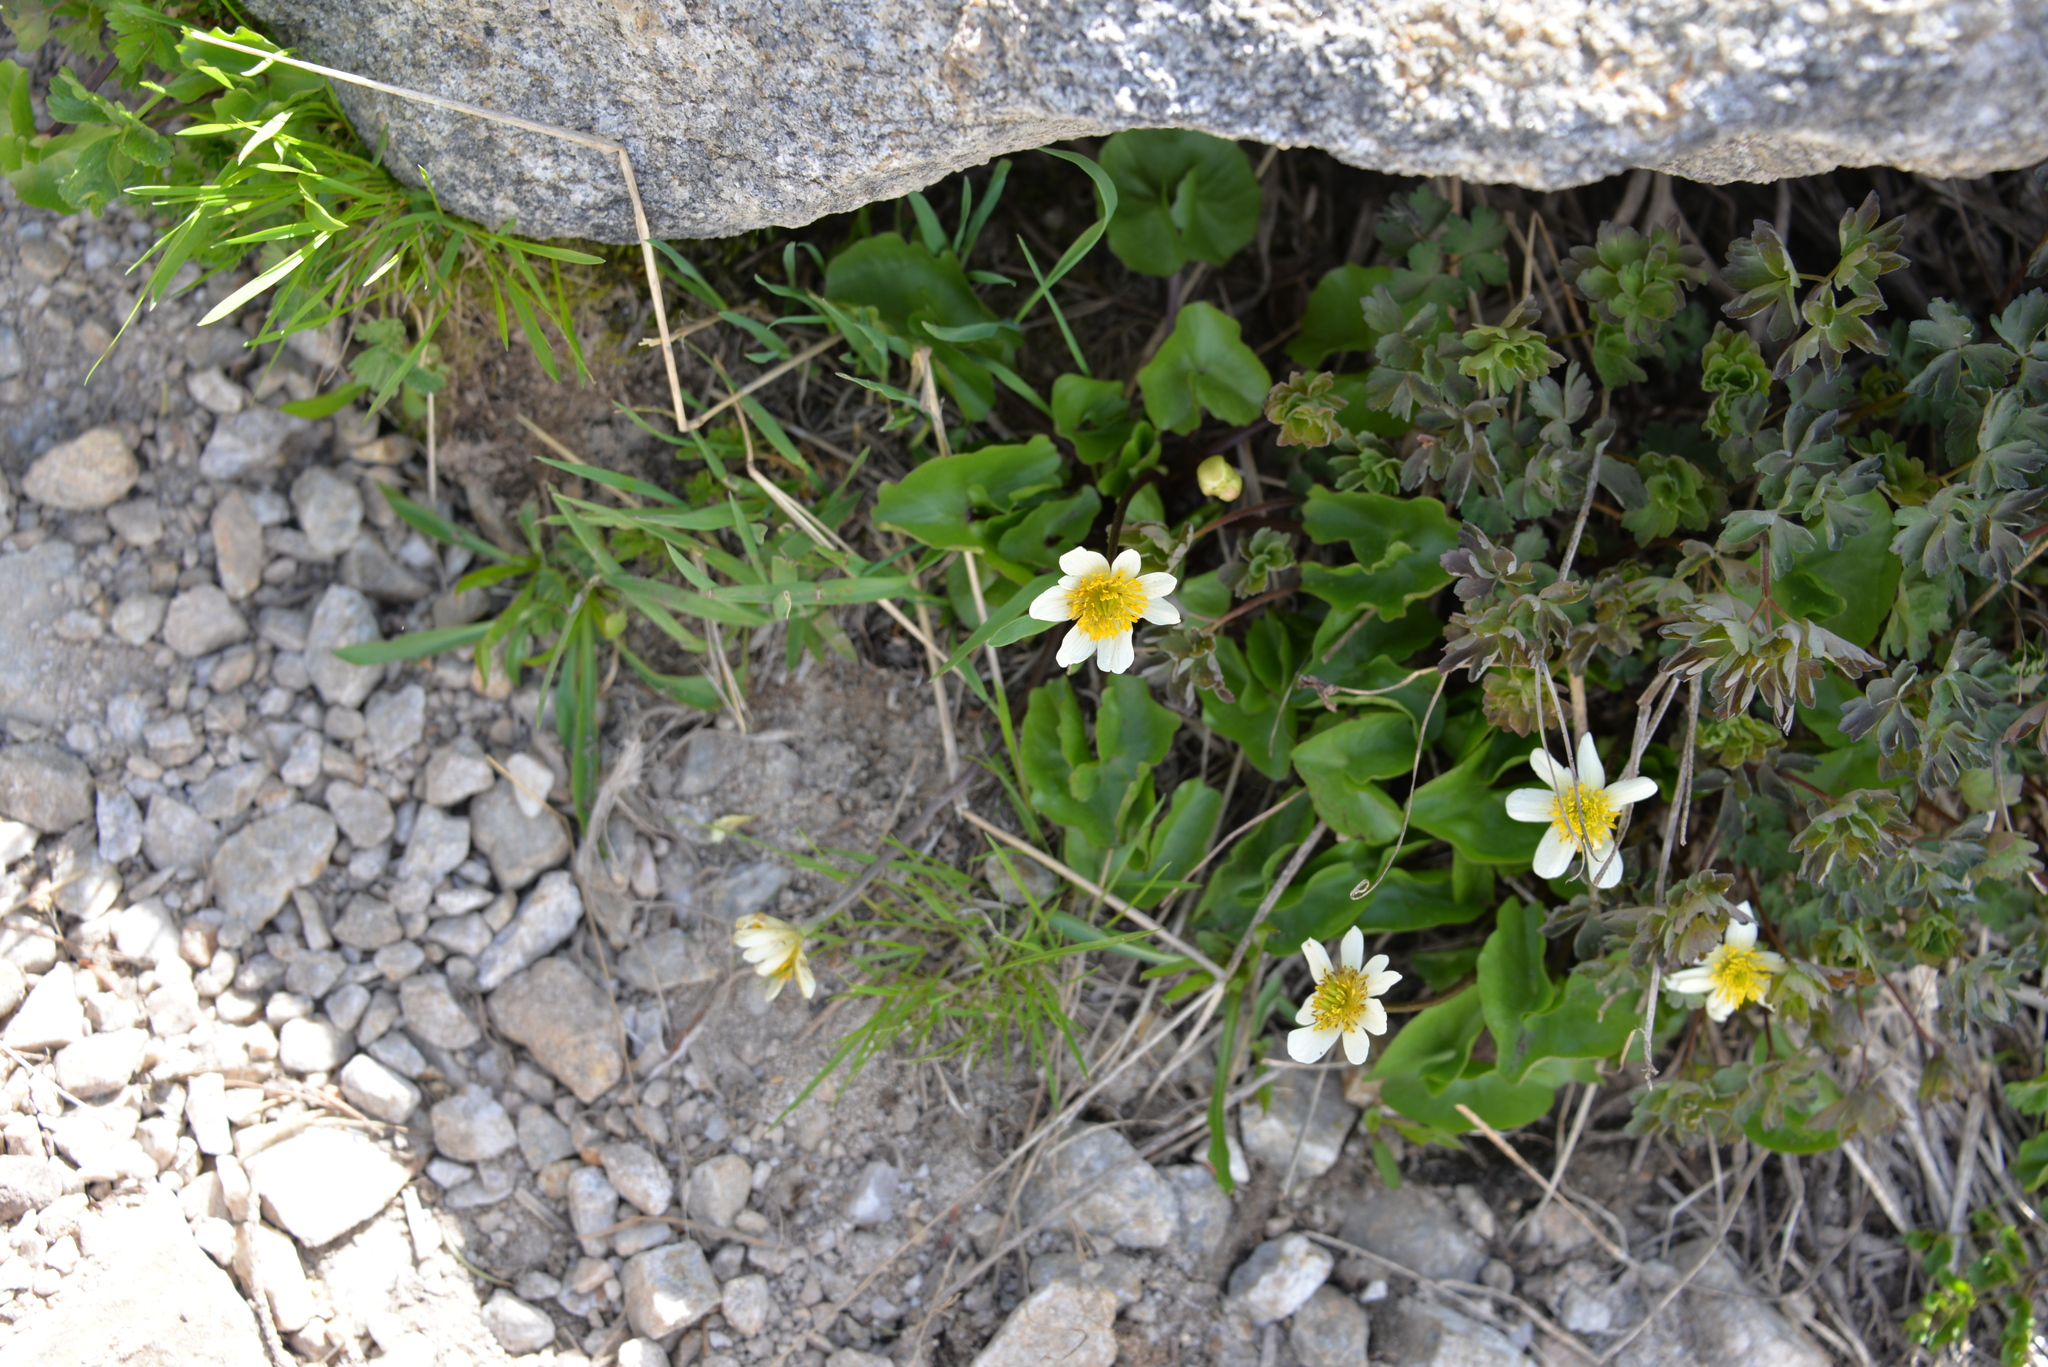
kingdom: Plantae
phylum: Tracheophyta
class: Magnoliopsida
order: Ranunculales
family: Ranunculaceae
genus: Caltha
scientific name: Caltha leptosepala
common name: Elkslip
